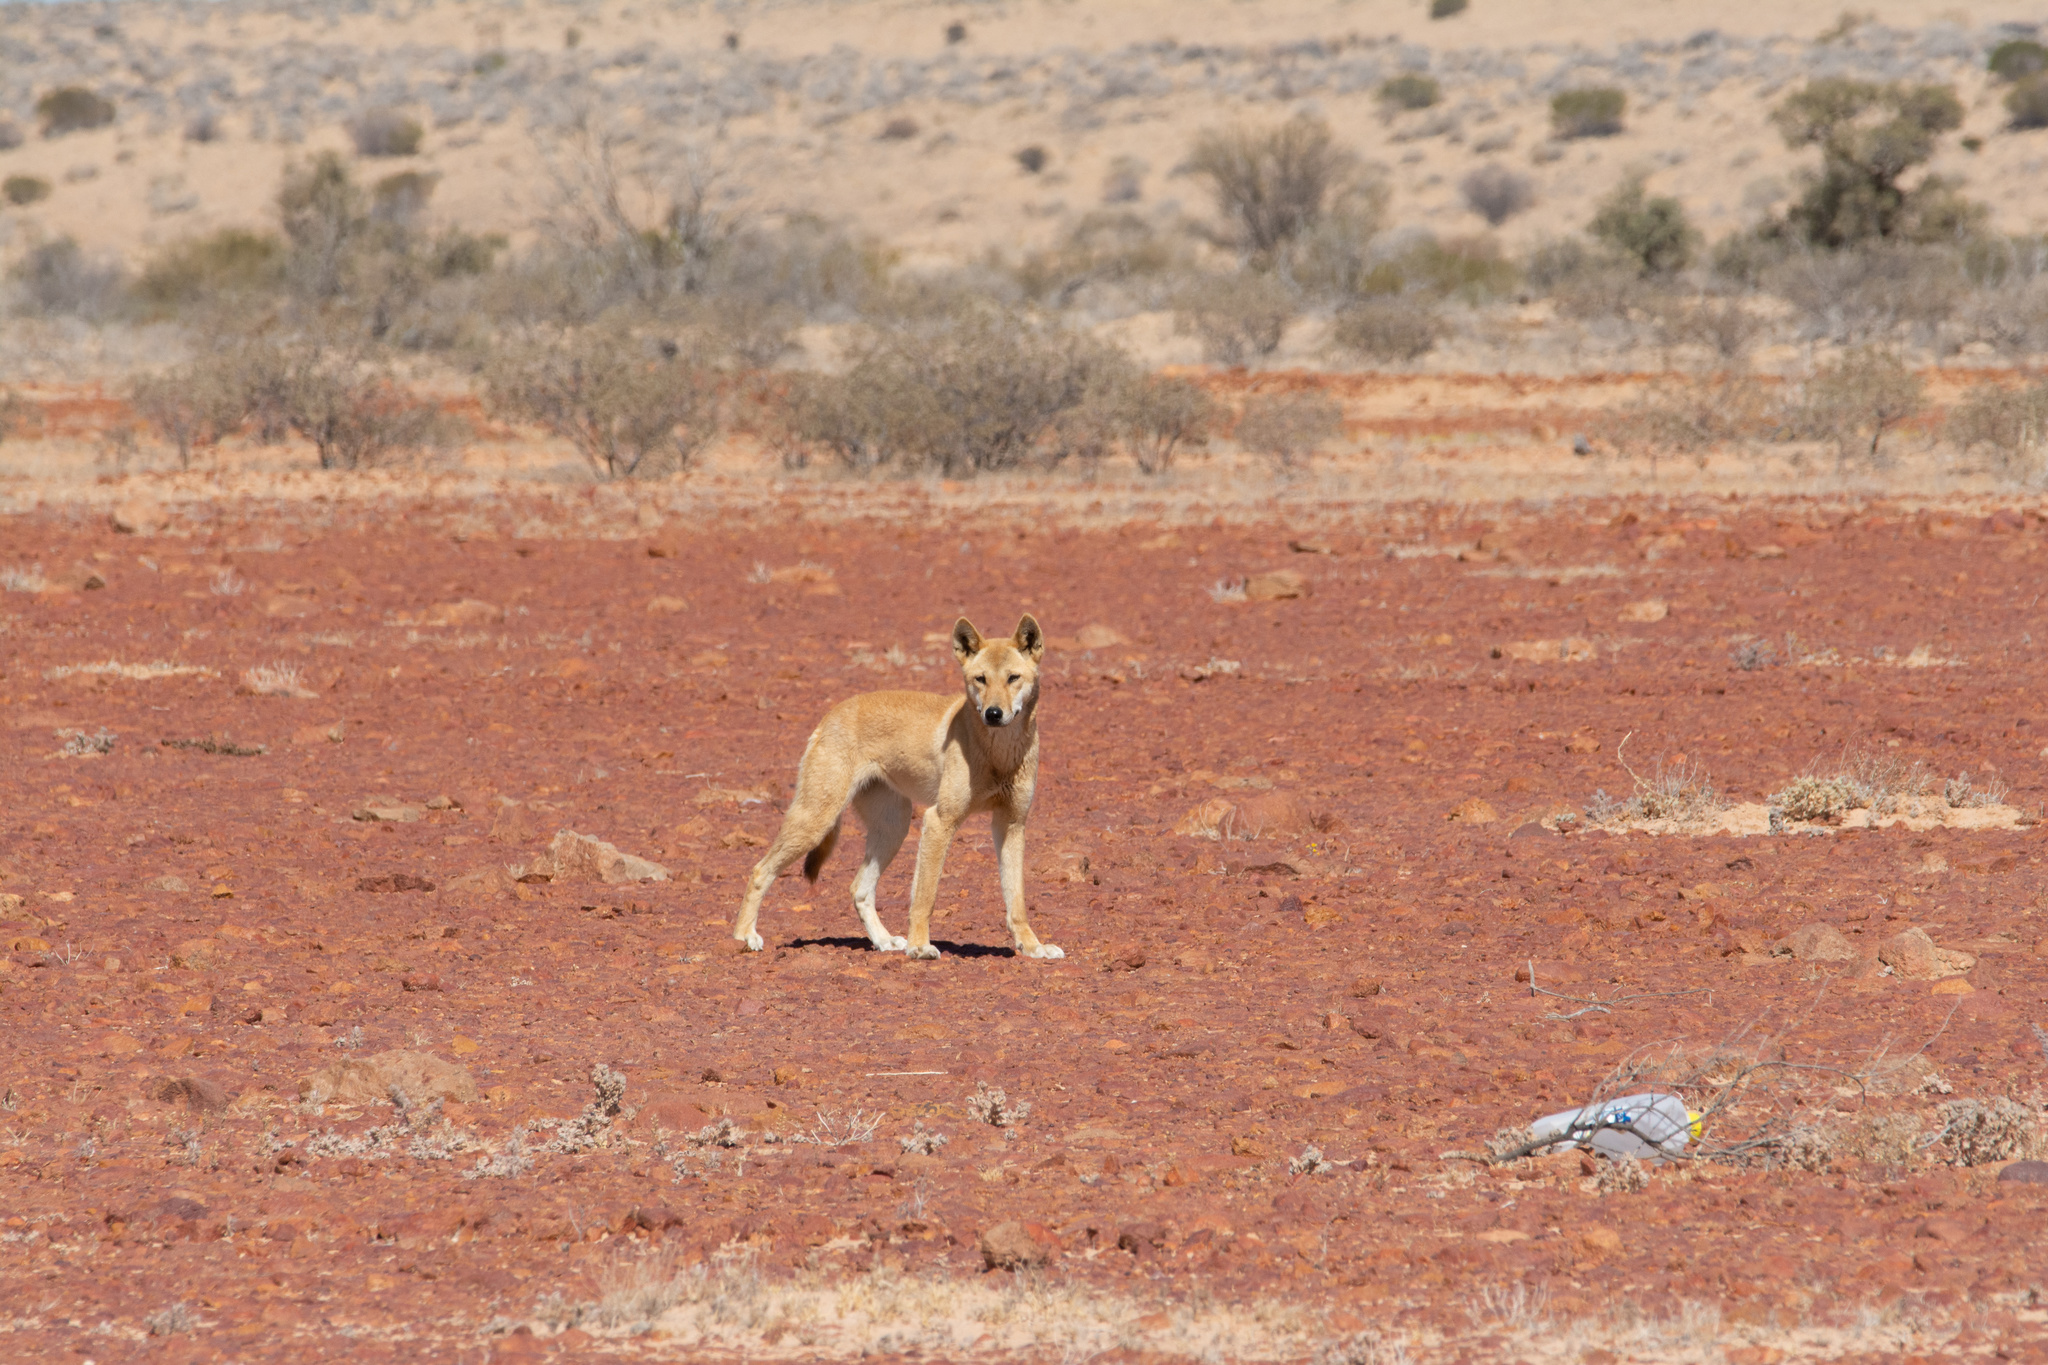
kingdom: Animalia
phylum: Chordata
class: Mammalia
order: Carnivora
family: Canidae
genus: Canis
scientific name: Canis lupus
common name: Gray wolf
